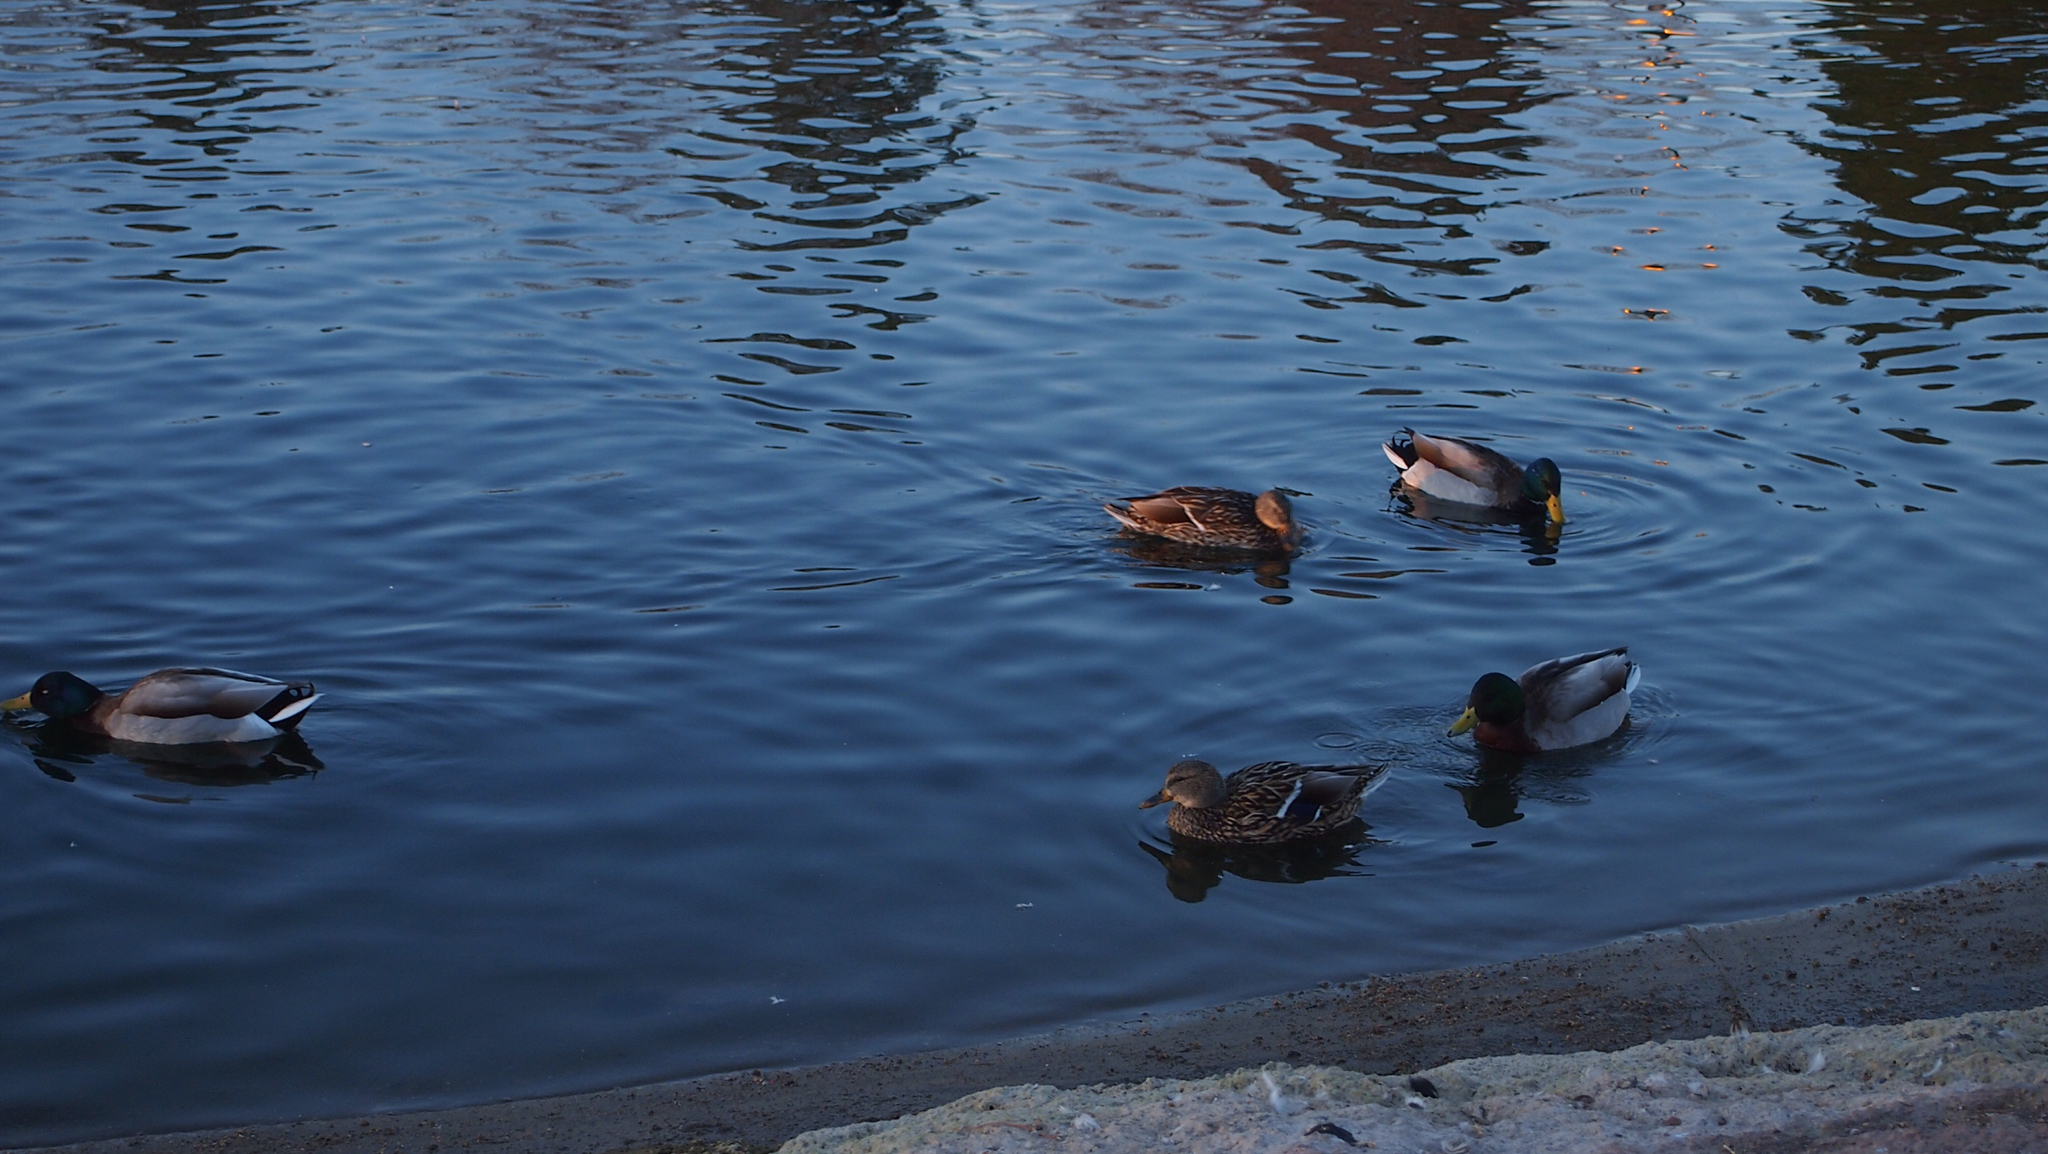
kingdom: Animalia
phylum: Chordata
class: Aves
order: Anseriformes
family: Anatidae
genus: Anas
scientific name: Anas platyrhynchos
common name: Mallard
